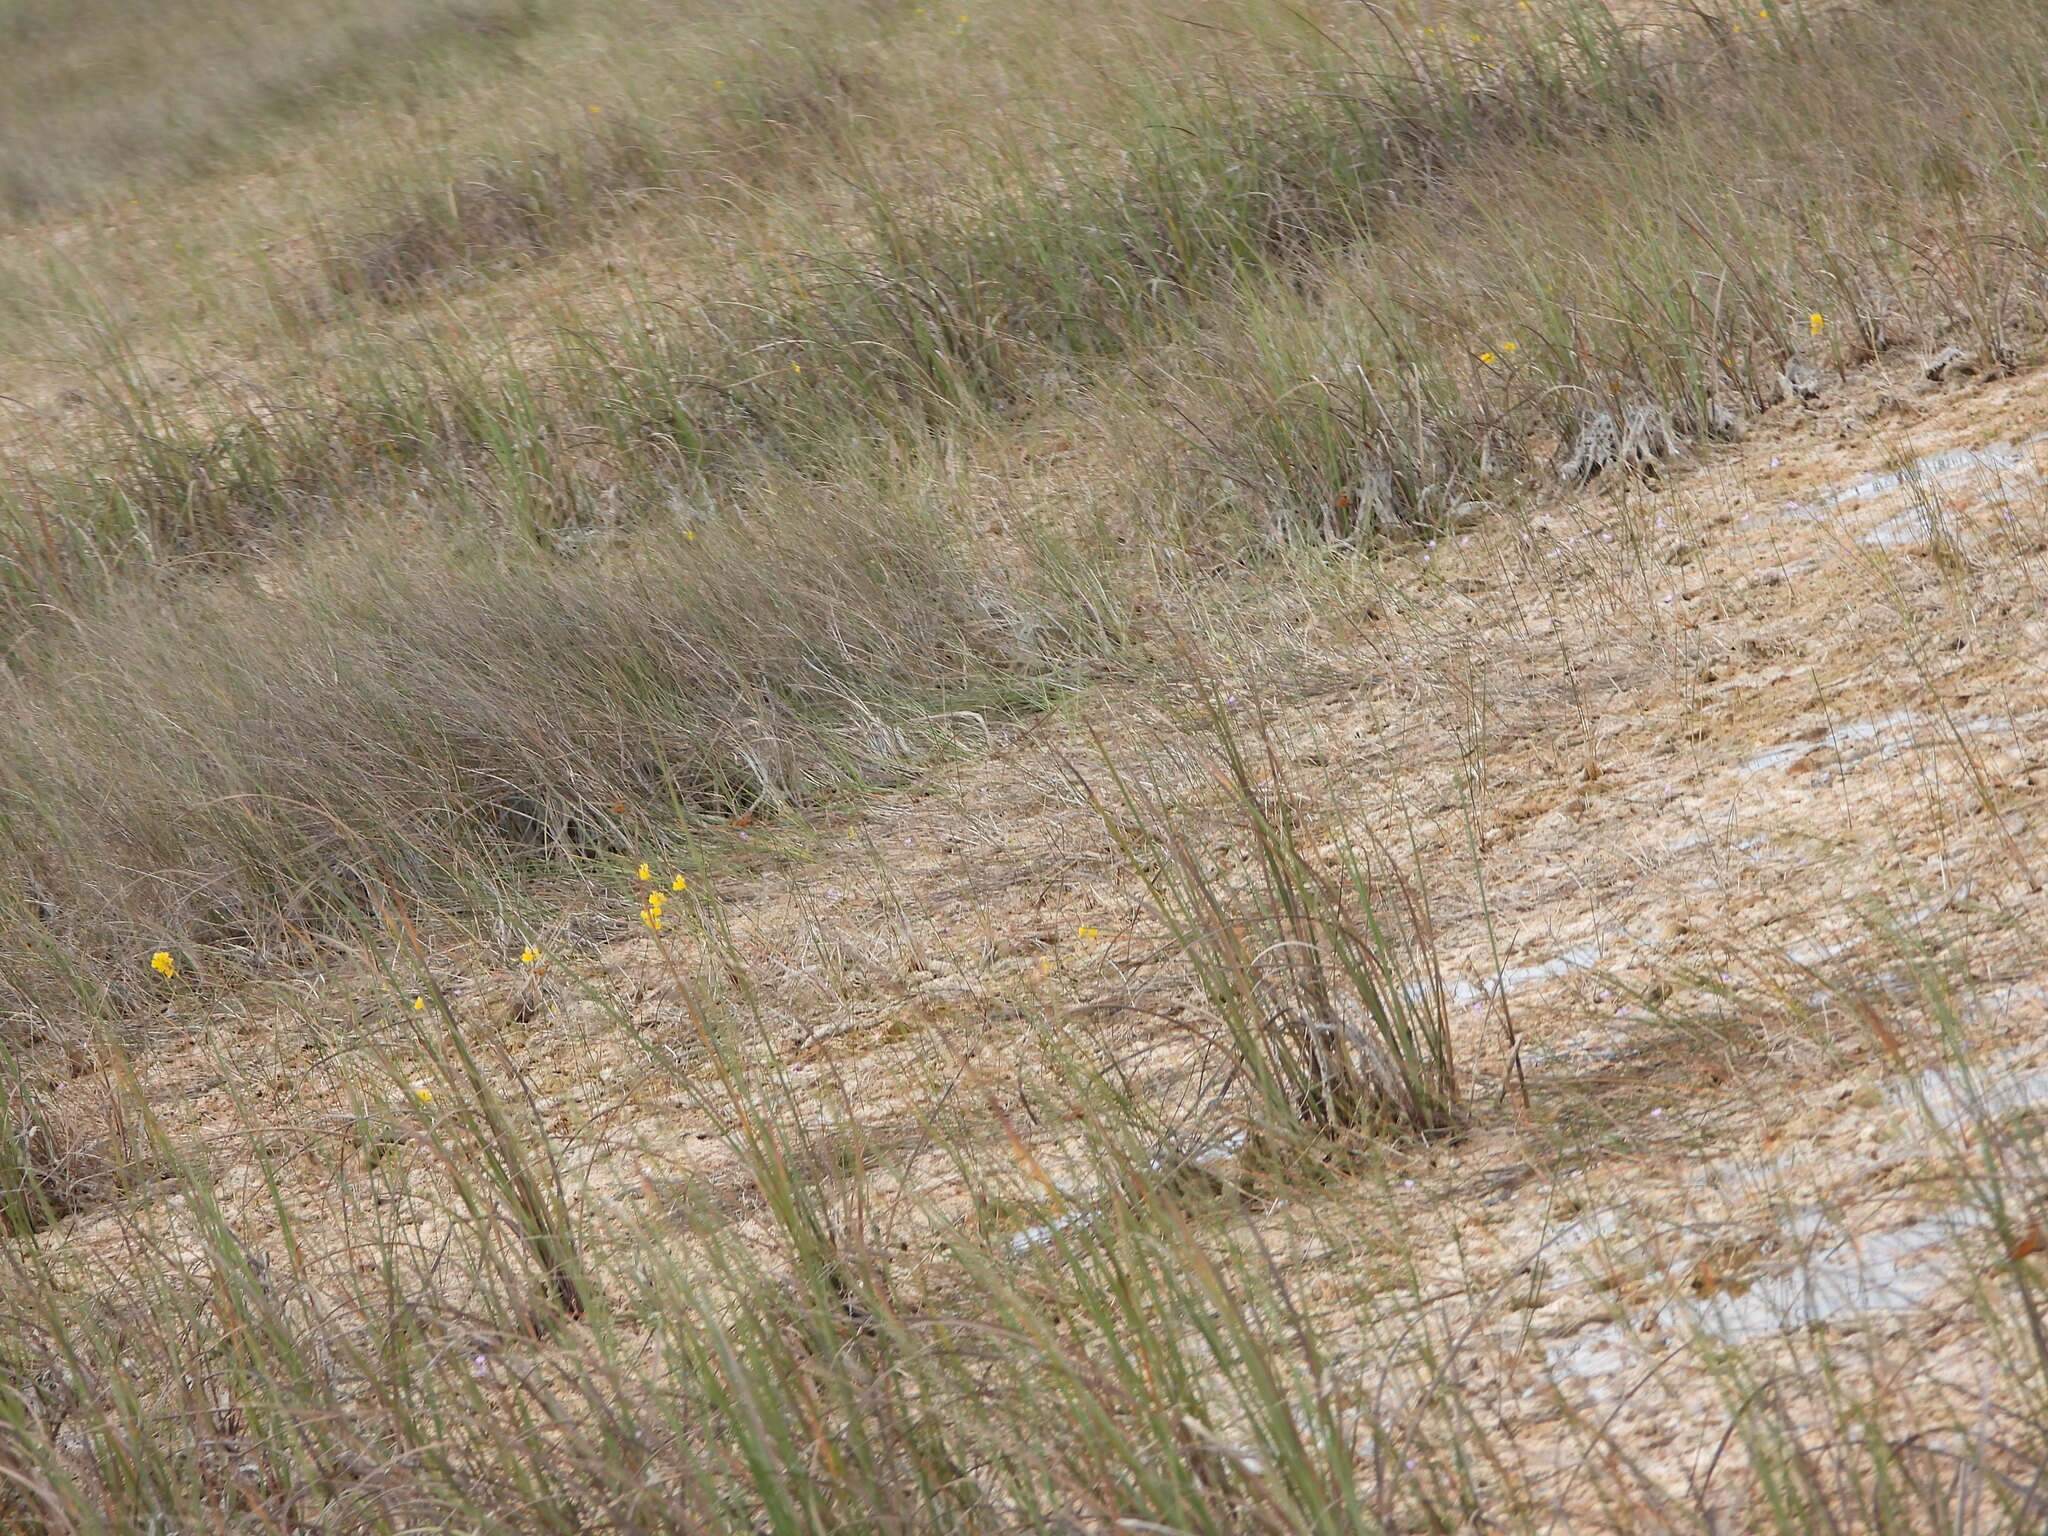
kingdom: Plantae
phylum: Tracheophyta
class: Magnoliopsida
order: Lamiales
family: Lentibulariaceae
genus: Utricularia
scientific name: Utricularia cornuta
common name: Horned bladderwort
